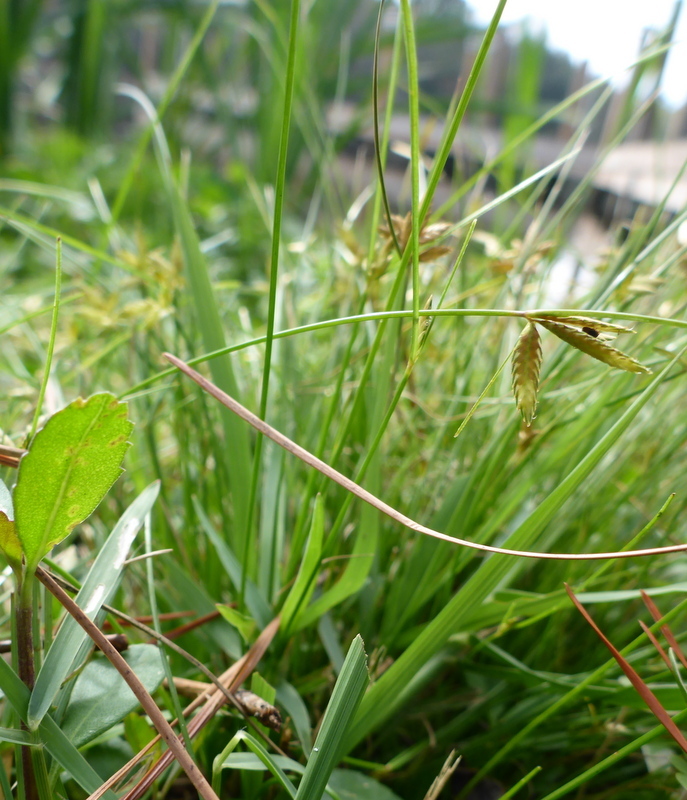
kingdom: Plantae
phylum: Tracheophyta
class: Liliopsida
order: Poales
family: Cyperaceae
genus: Cyperus
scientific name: Cyperus lanceolatus
